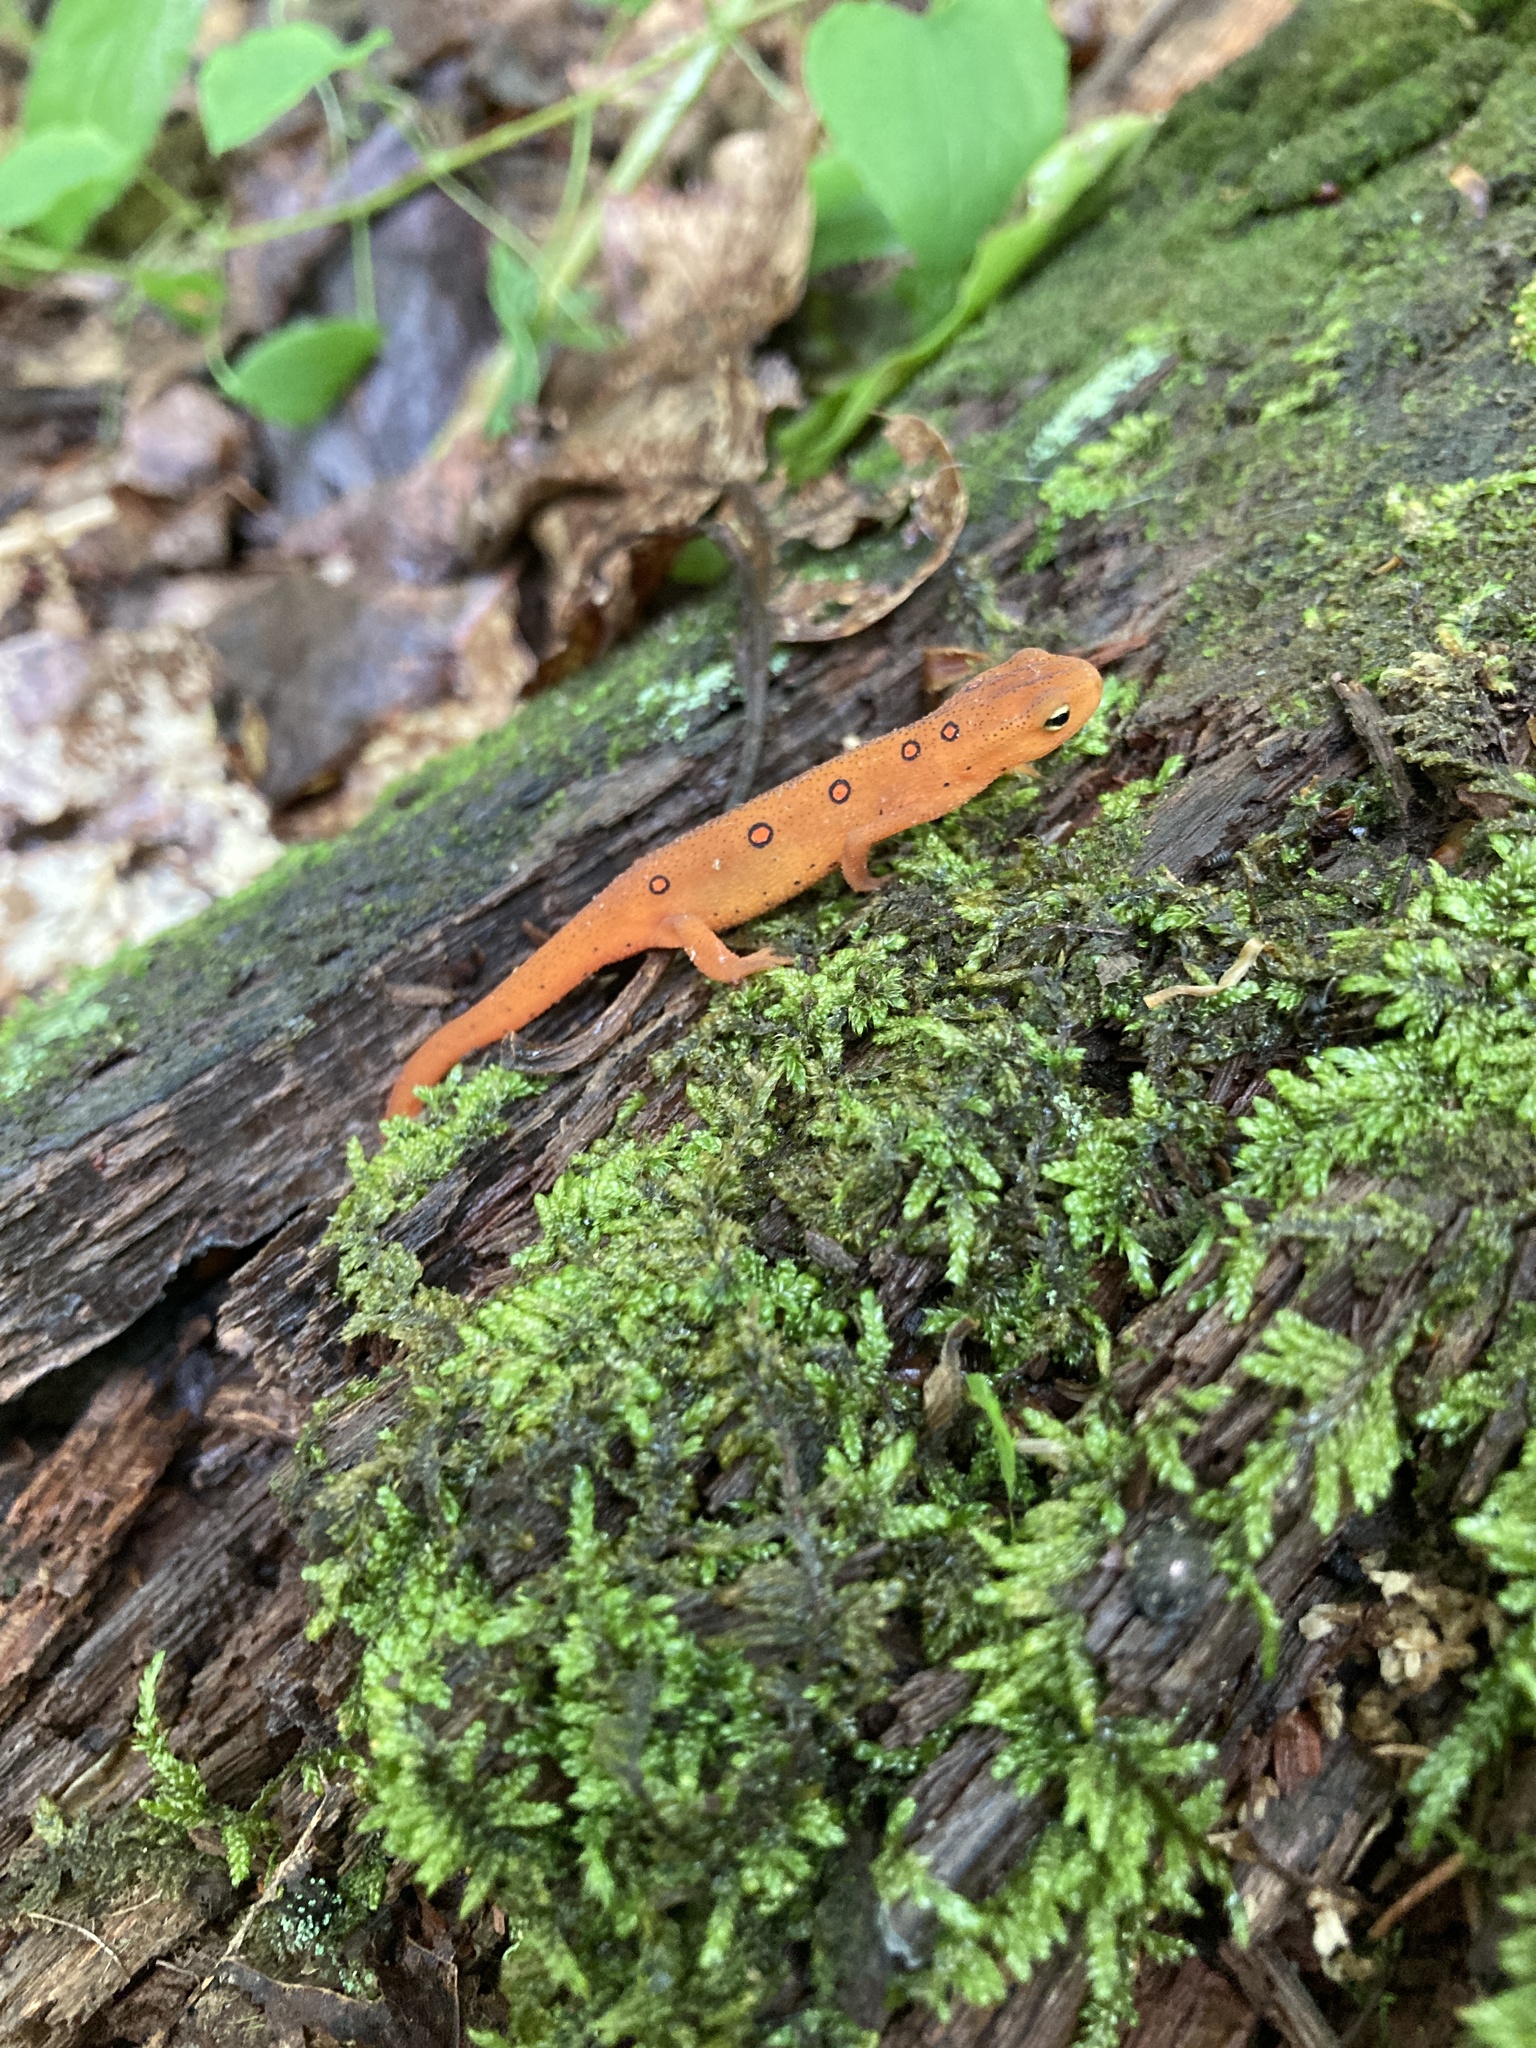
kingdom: Animalia
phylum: Chordata
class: Amphibia
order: Caudata
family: Salamandridae
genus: Notophthalmus
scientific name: Notophthalmus viridescens
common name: Eastern newt
